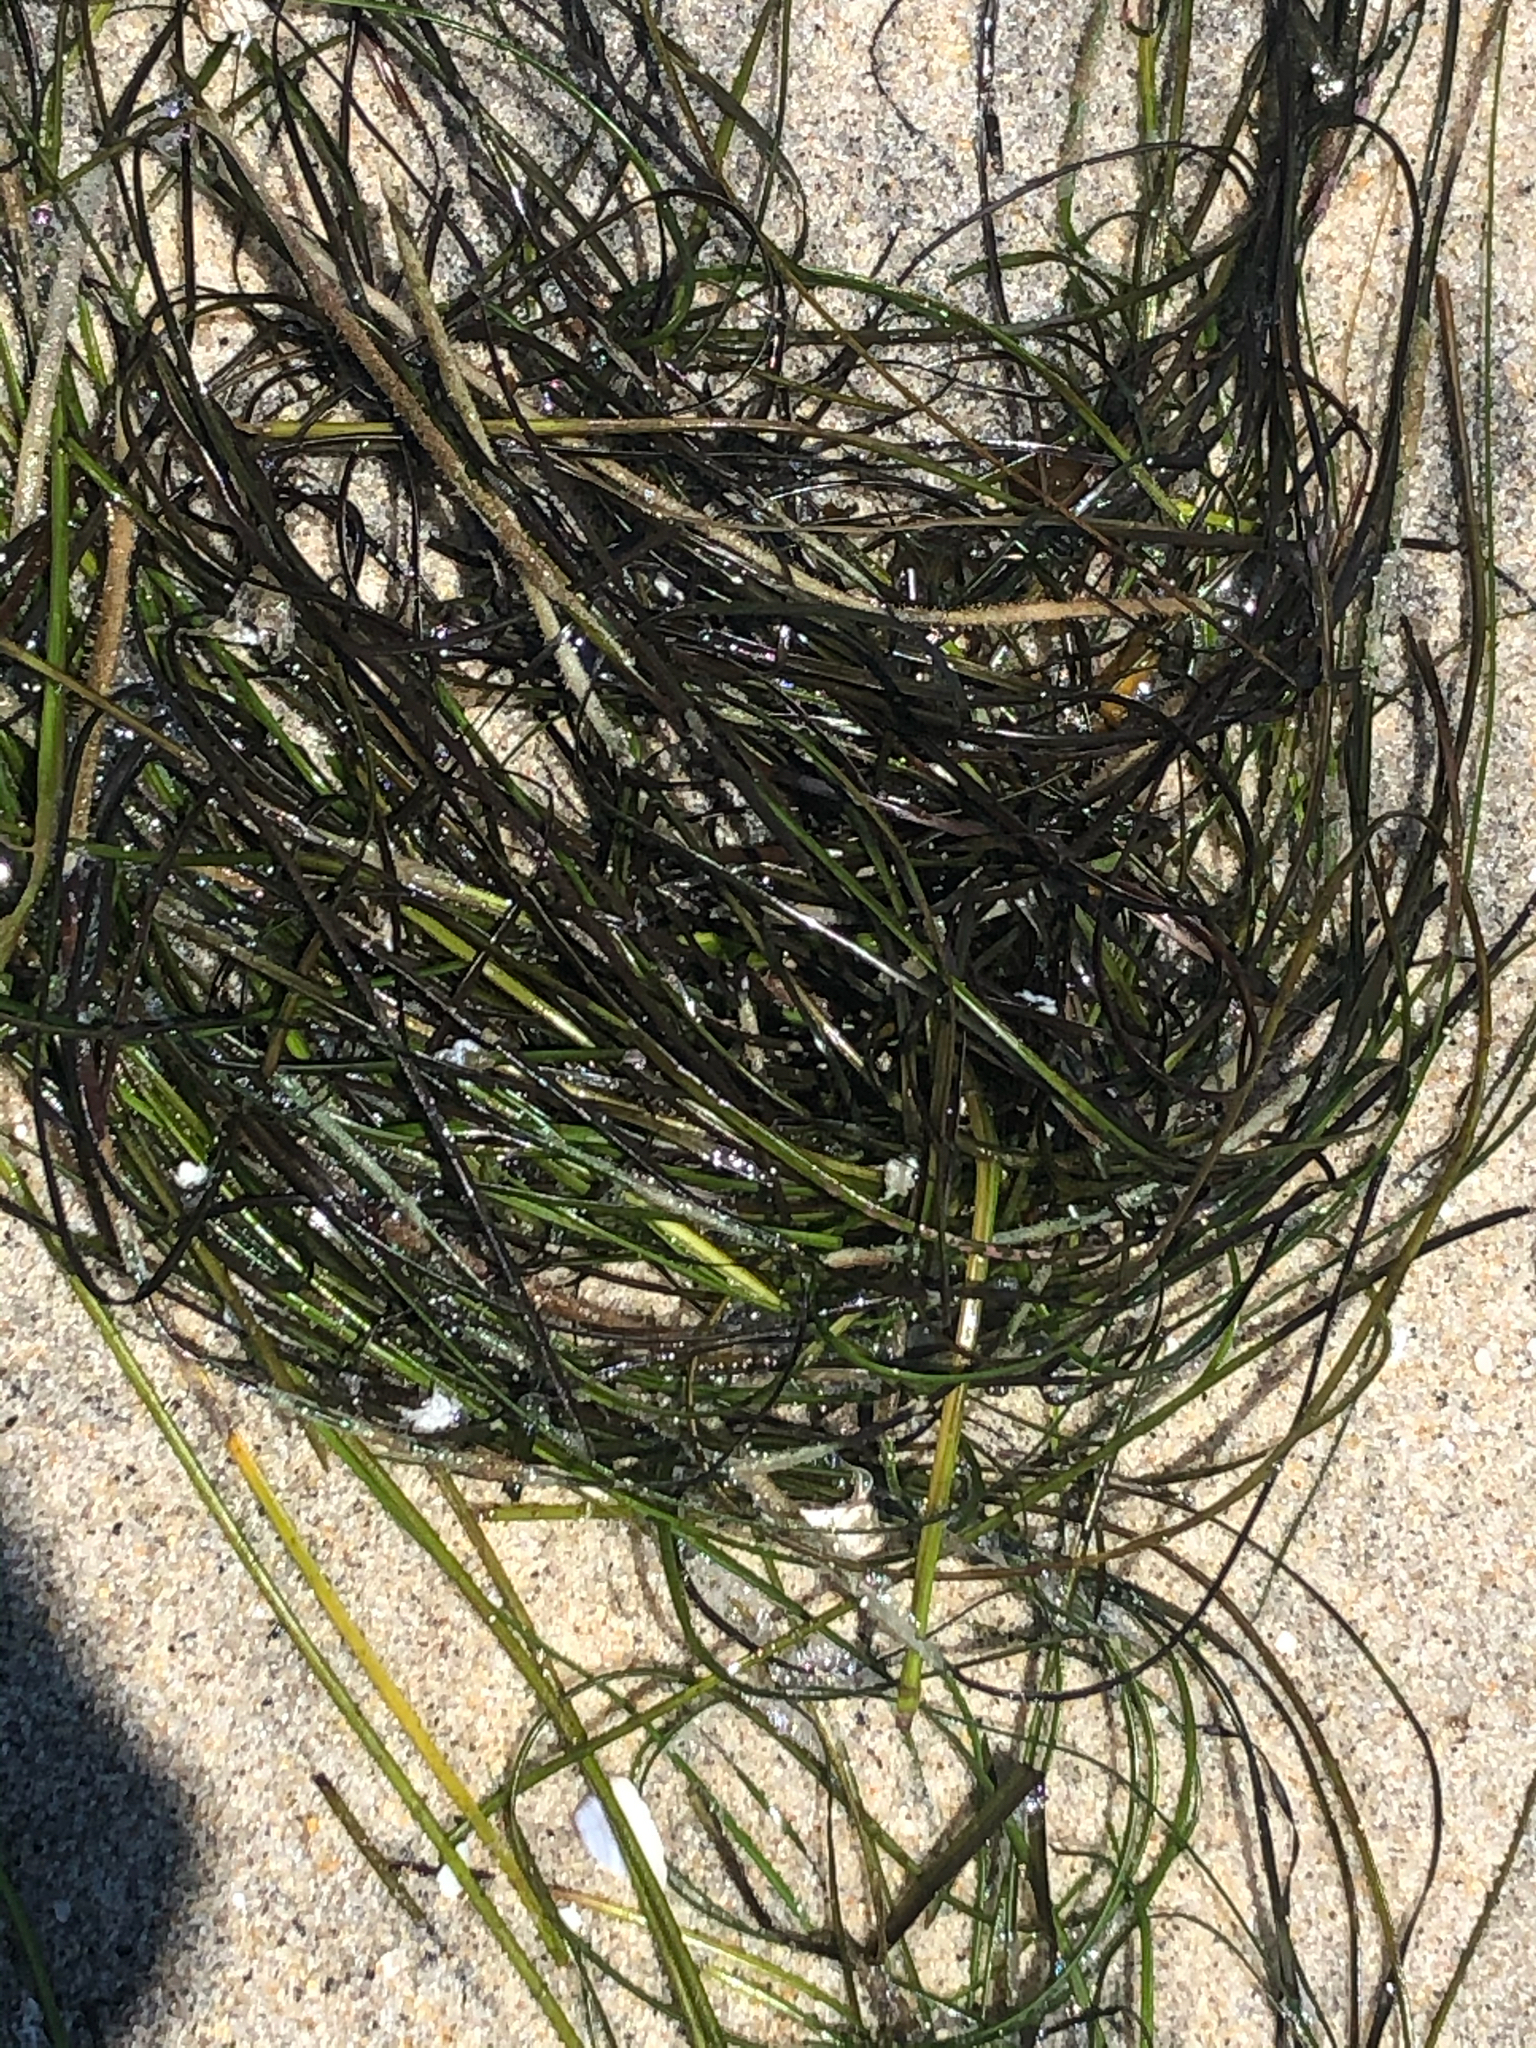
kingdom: Plantae
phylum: Tracheophyta
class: Liliopsida
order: Alismatales
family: Zosteraceae
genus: Phyllospadix
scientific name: Phyllospadix torreyi
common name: Surfgrass
